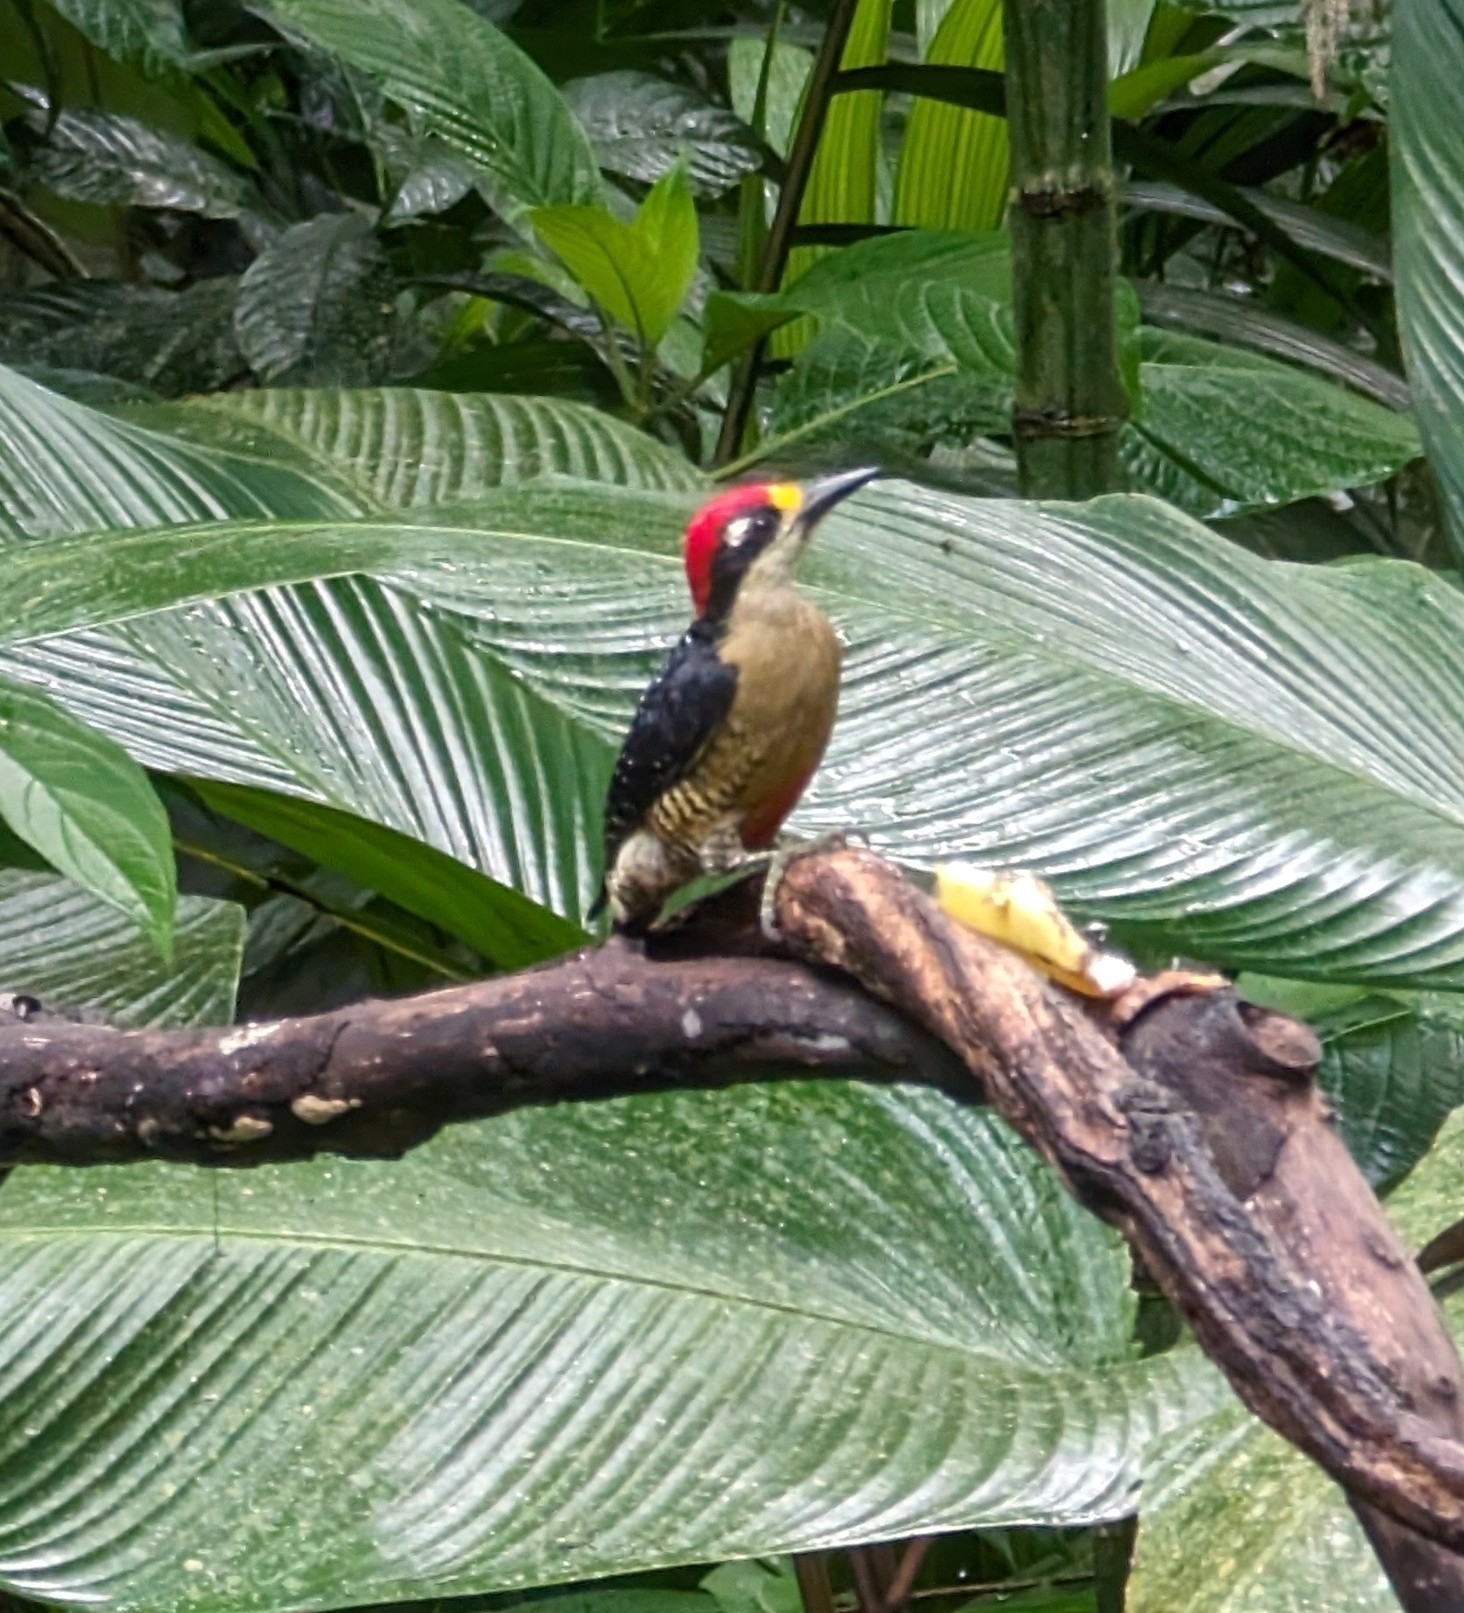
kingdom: Animalia
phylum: Chordata
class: Aves
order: Piciformes
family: Picidae
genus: Melanerpes
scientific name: Melanerpes pucherani
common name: Black-cheeked woodpecker
